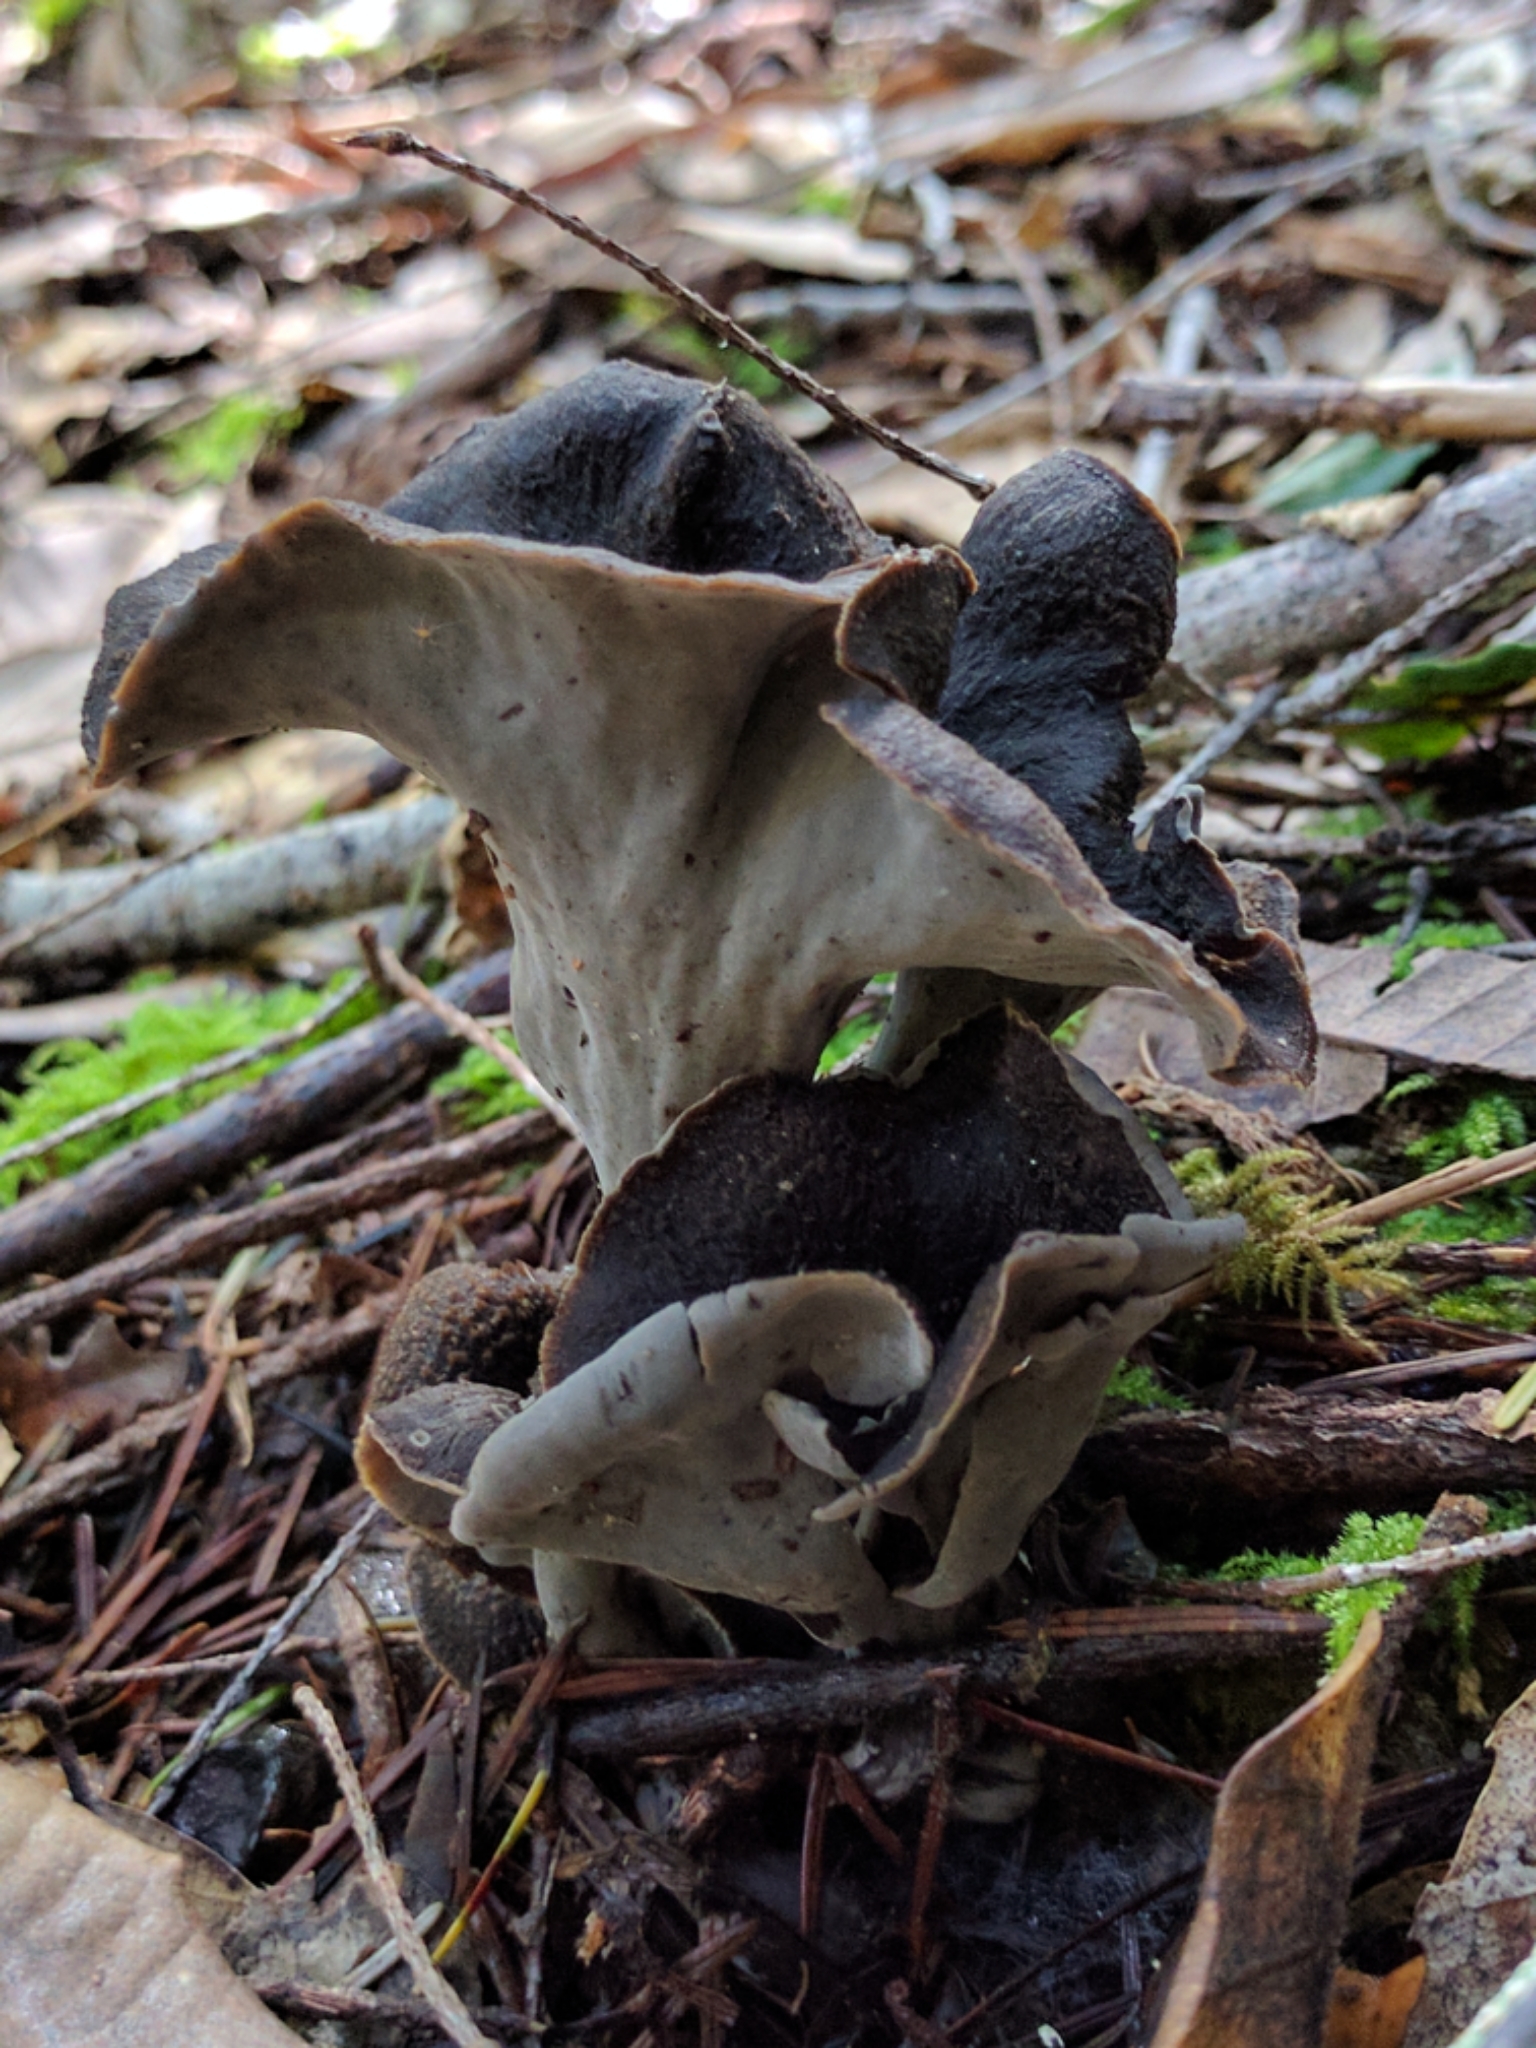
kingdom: Fungi
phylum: Basidiomycota
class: Agaricomycetes
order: Cantharellales
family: Hydnaceae
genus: Craterellus
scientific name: Craterellus calicornucopioides
